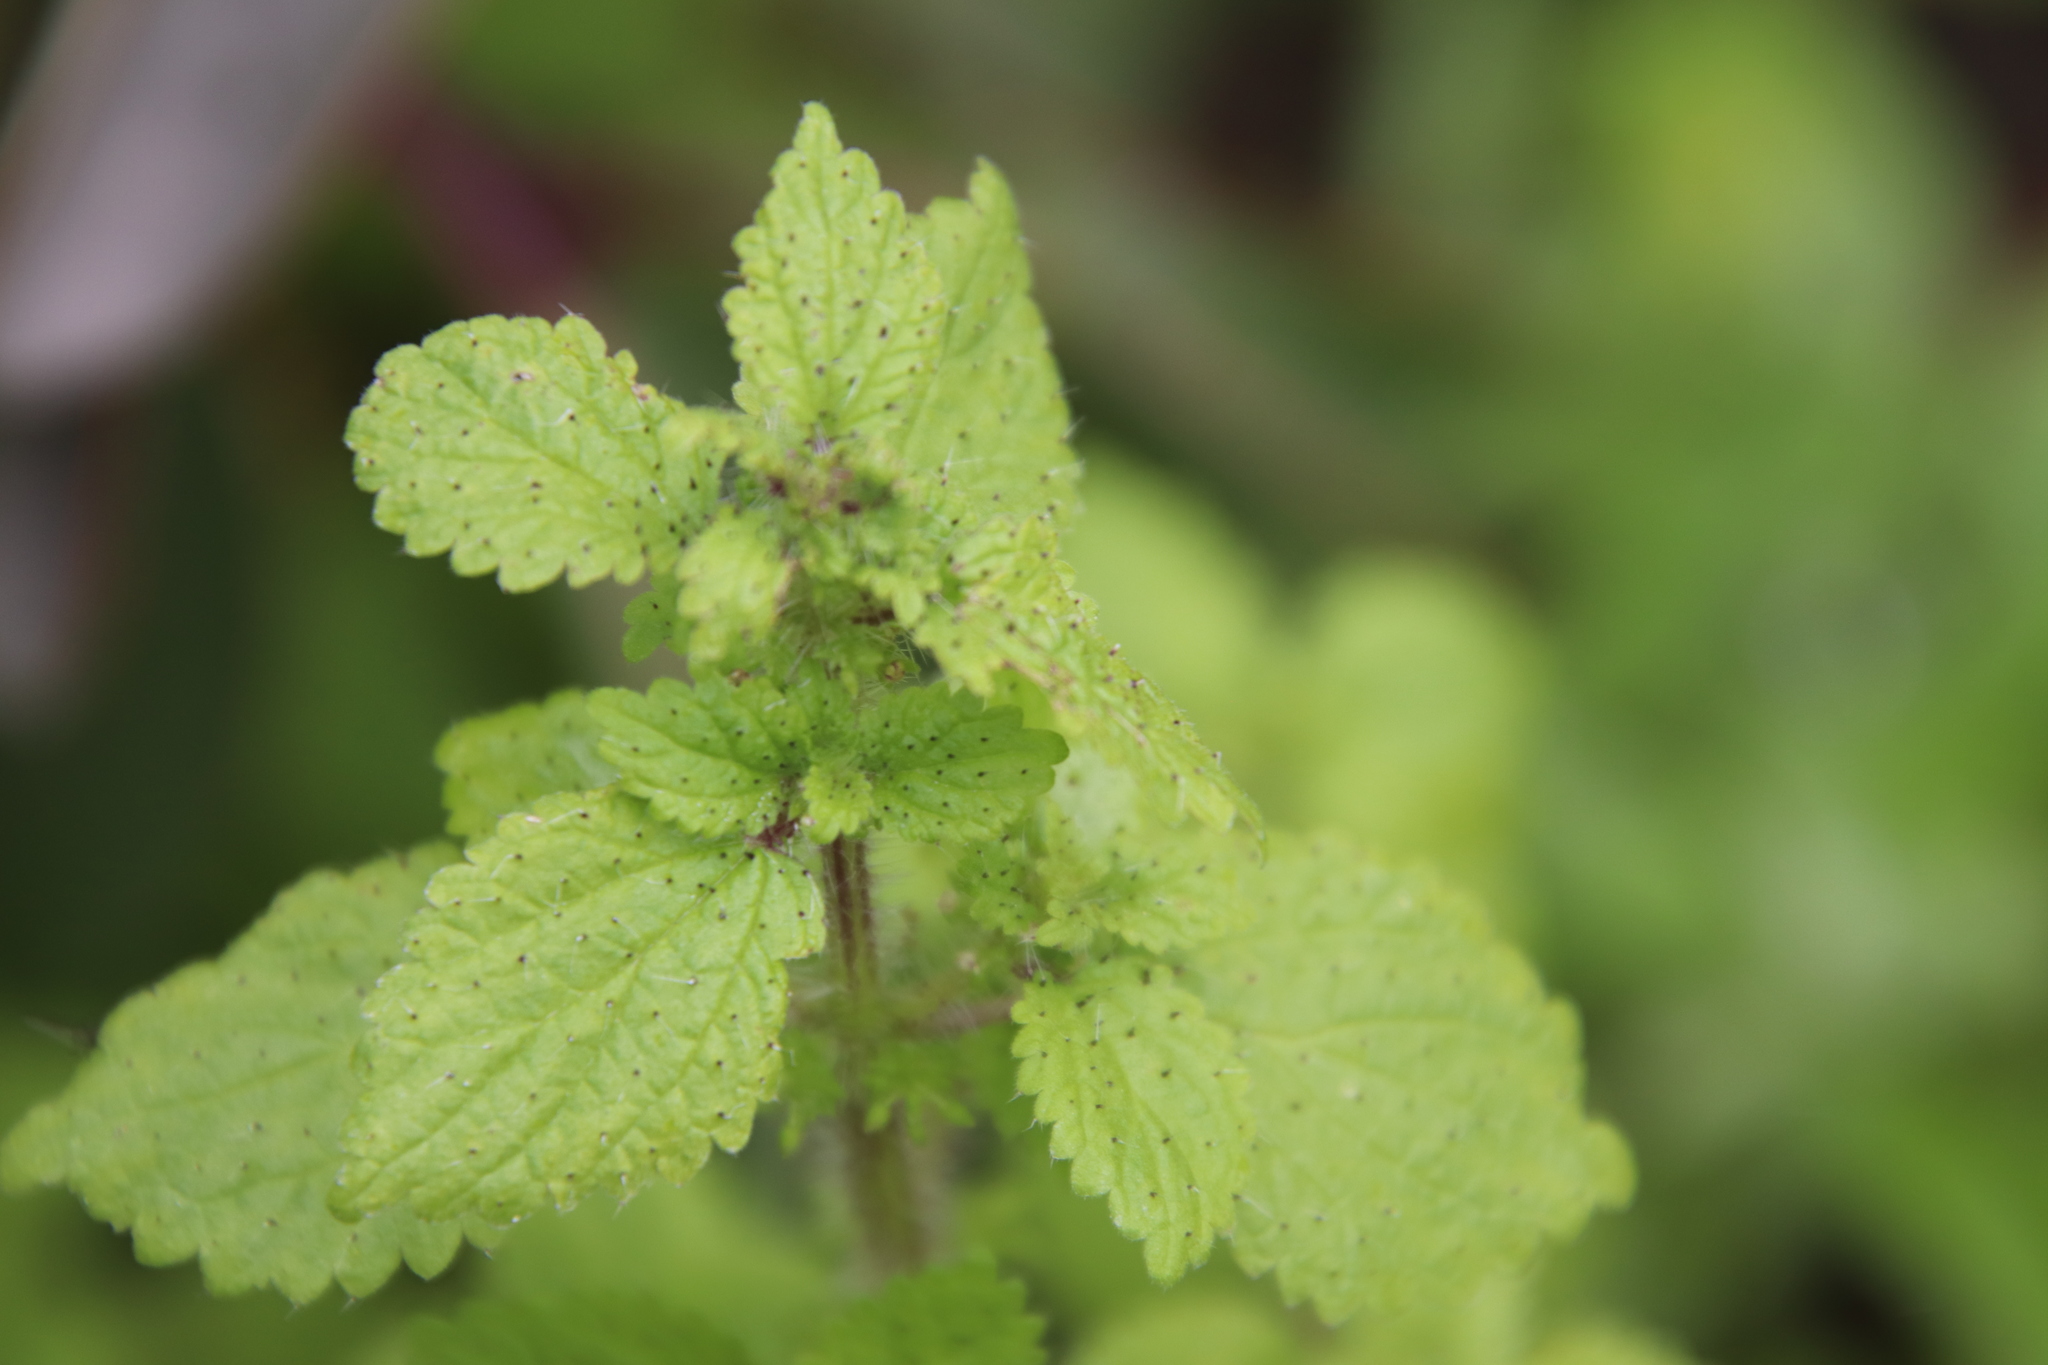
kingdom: Plantae
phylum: Tracheophyta
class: Magnoliopsida
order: Rosales
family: Urticaceae
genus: Hesperocnide
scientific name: Hesperocnide tenella
